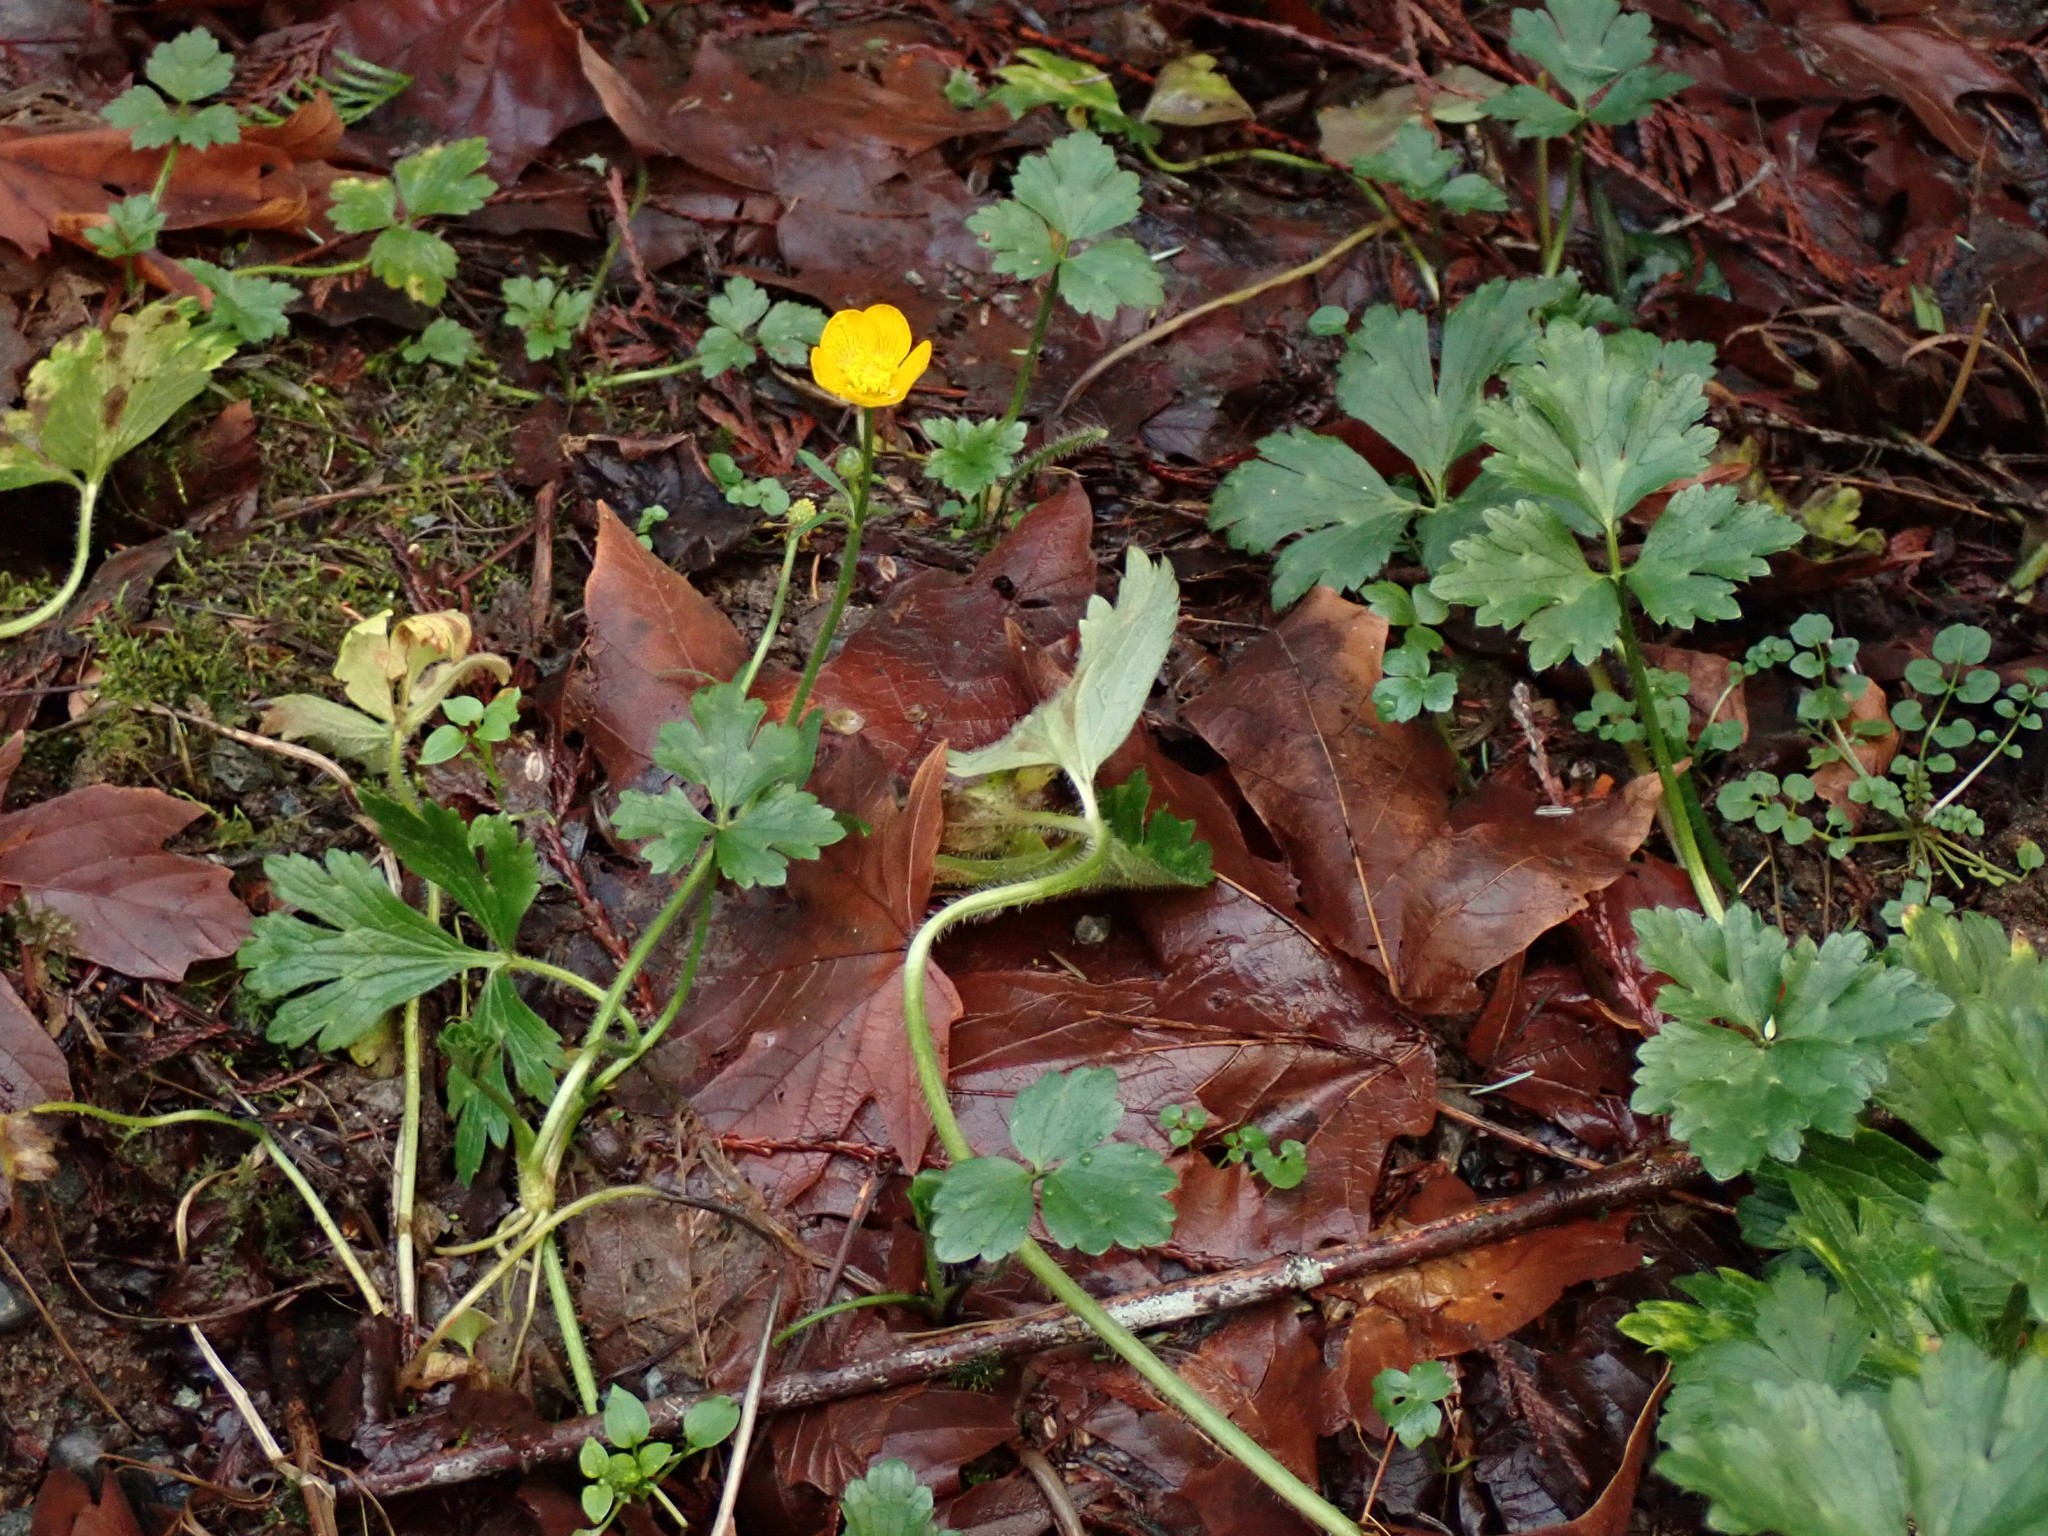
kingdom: Plantae
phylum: Tracheophyta
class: Magnoliopsida
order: Ranunculales
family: Ranunculaceae
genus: Ranunculus
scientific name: Ranunculus repens
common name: Creeping buttercup
